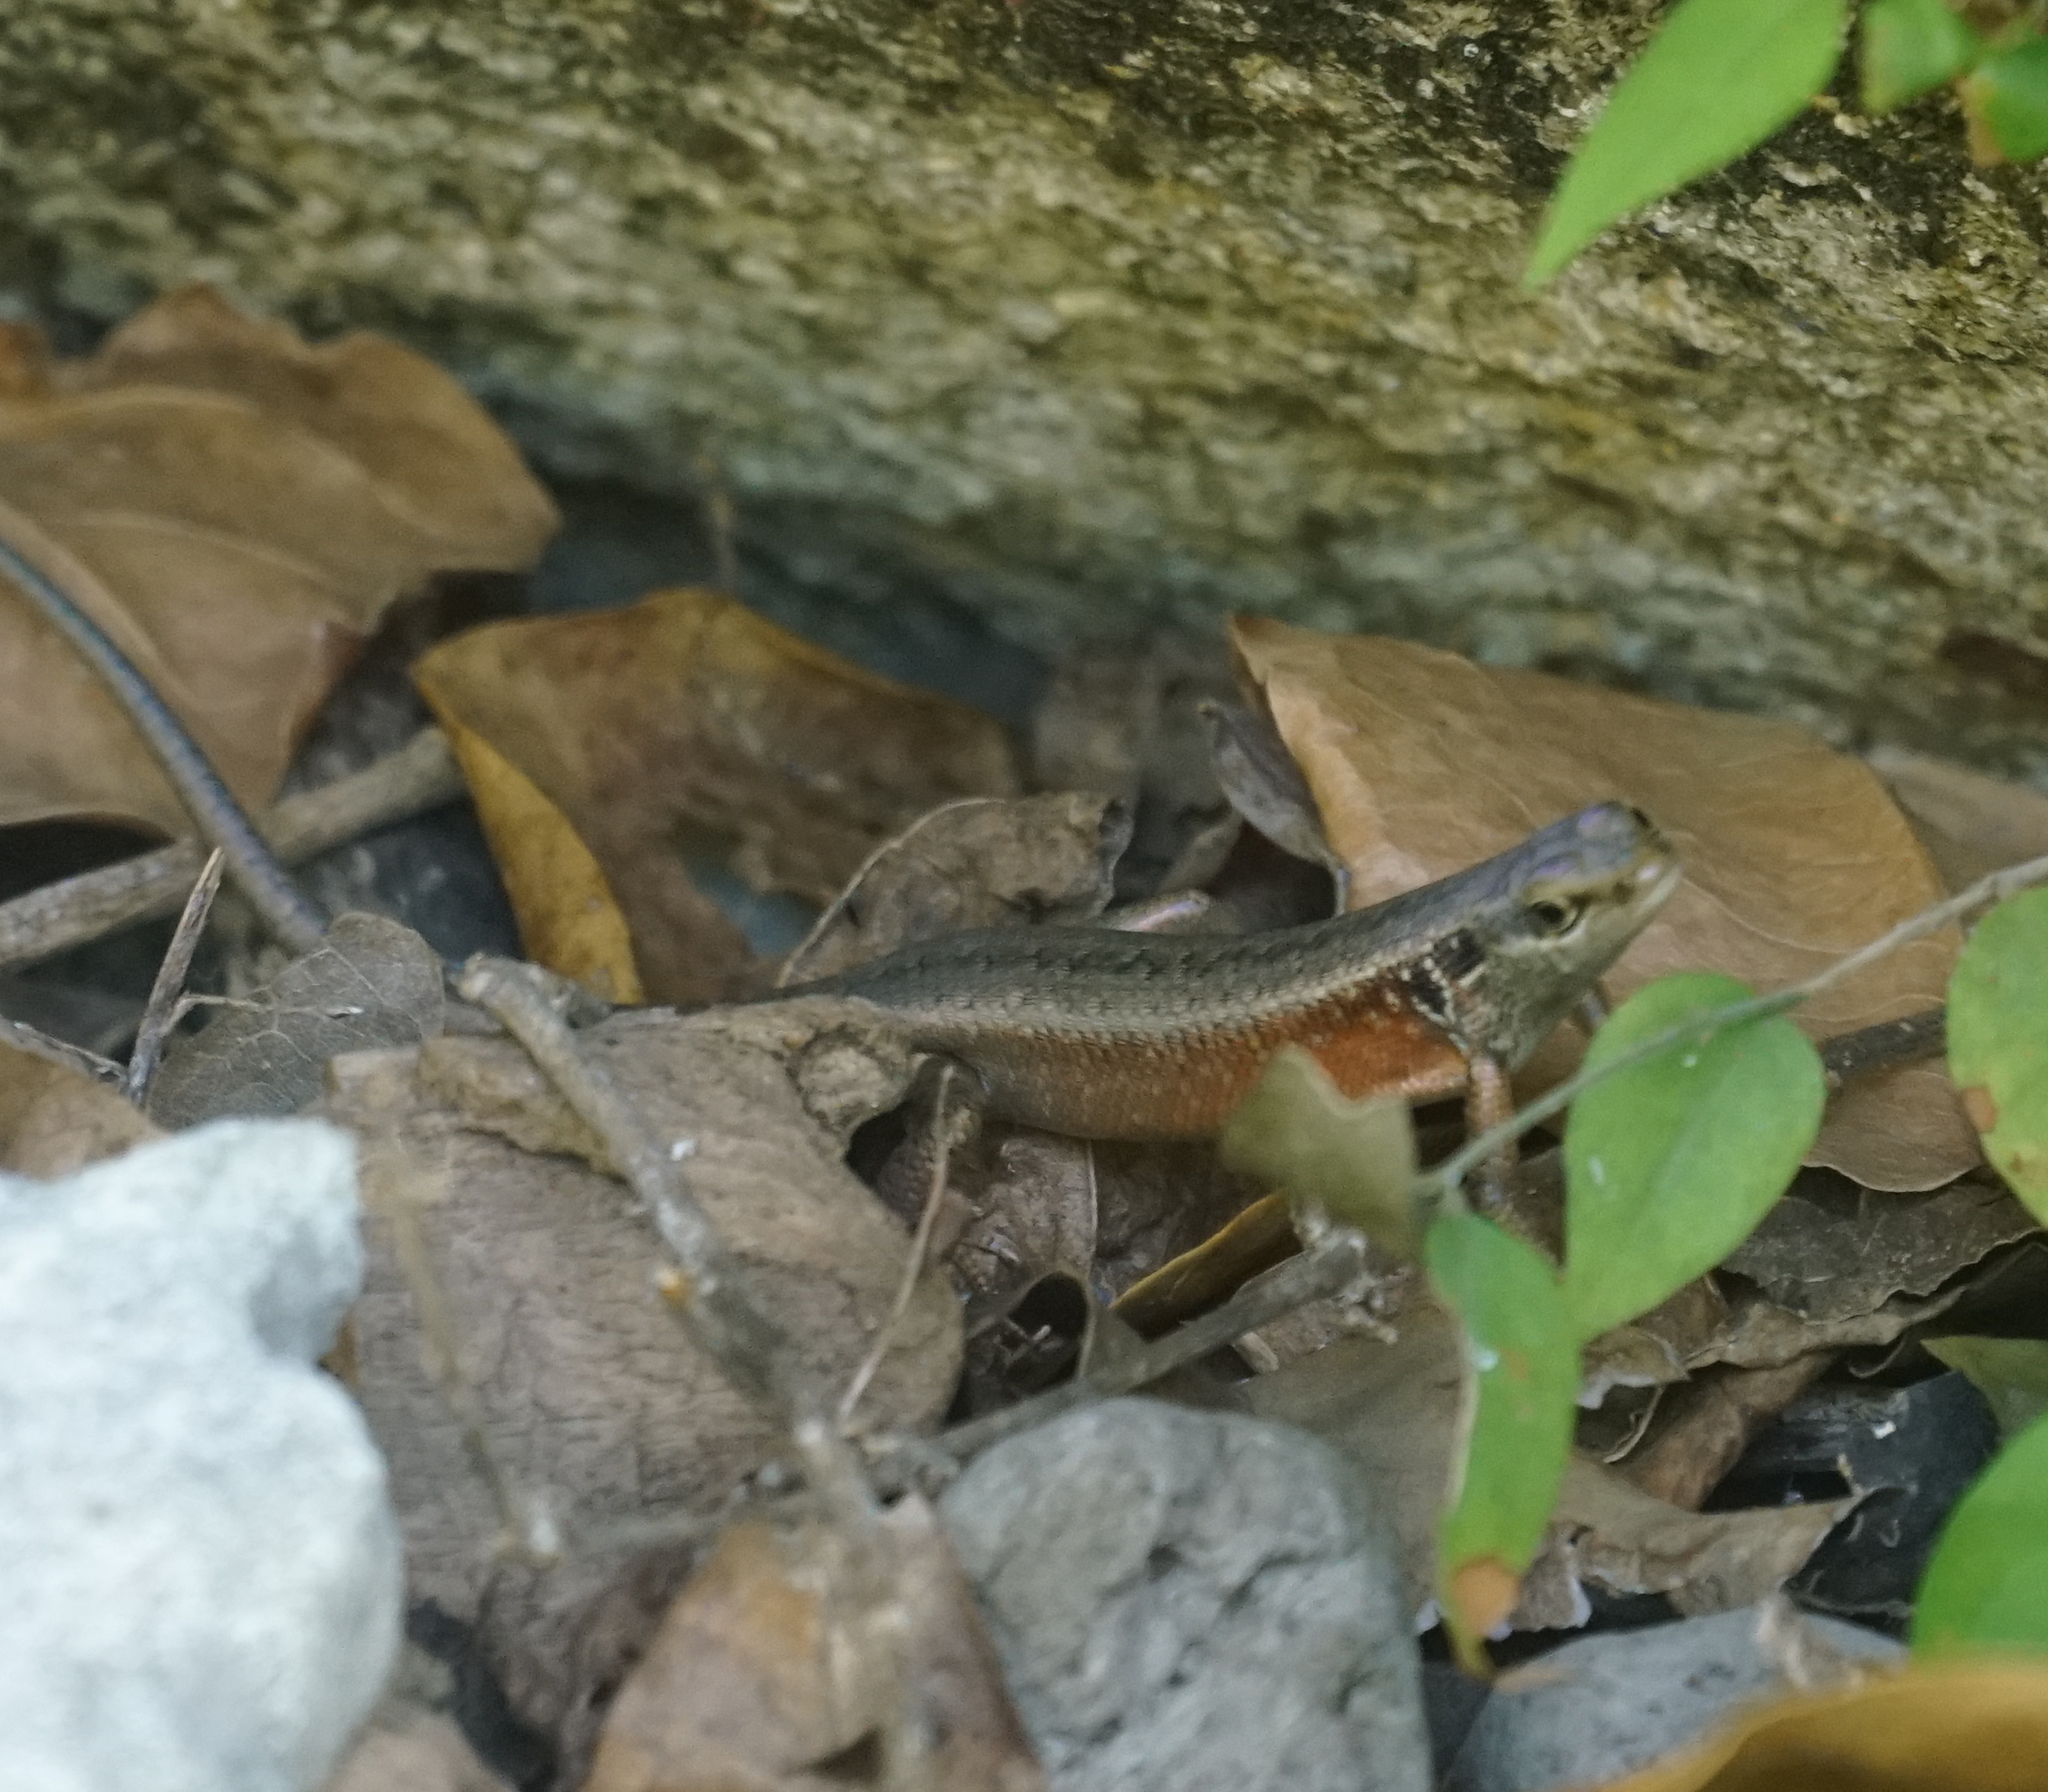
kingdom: Animalia
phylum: Chordata
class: Squamata
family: Scincidae
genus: Carlia
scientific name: Carlia longipes
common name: Closed-litter rainbow-skink
